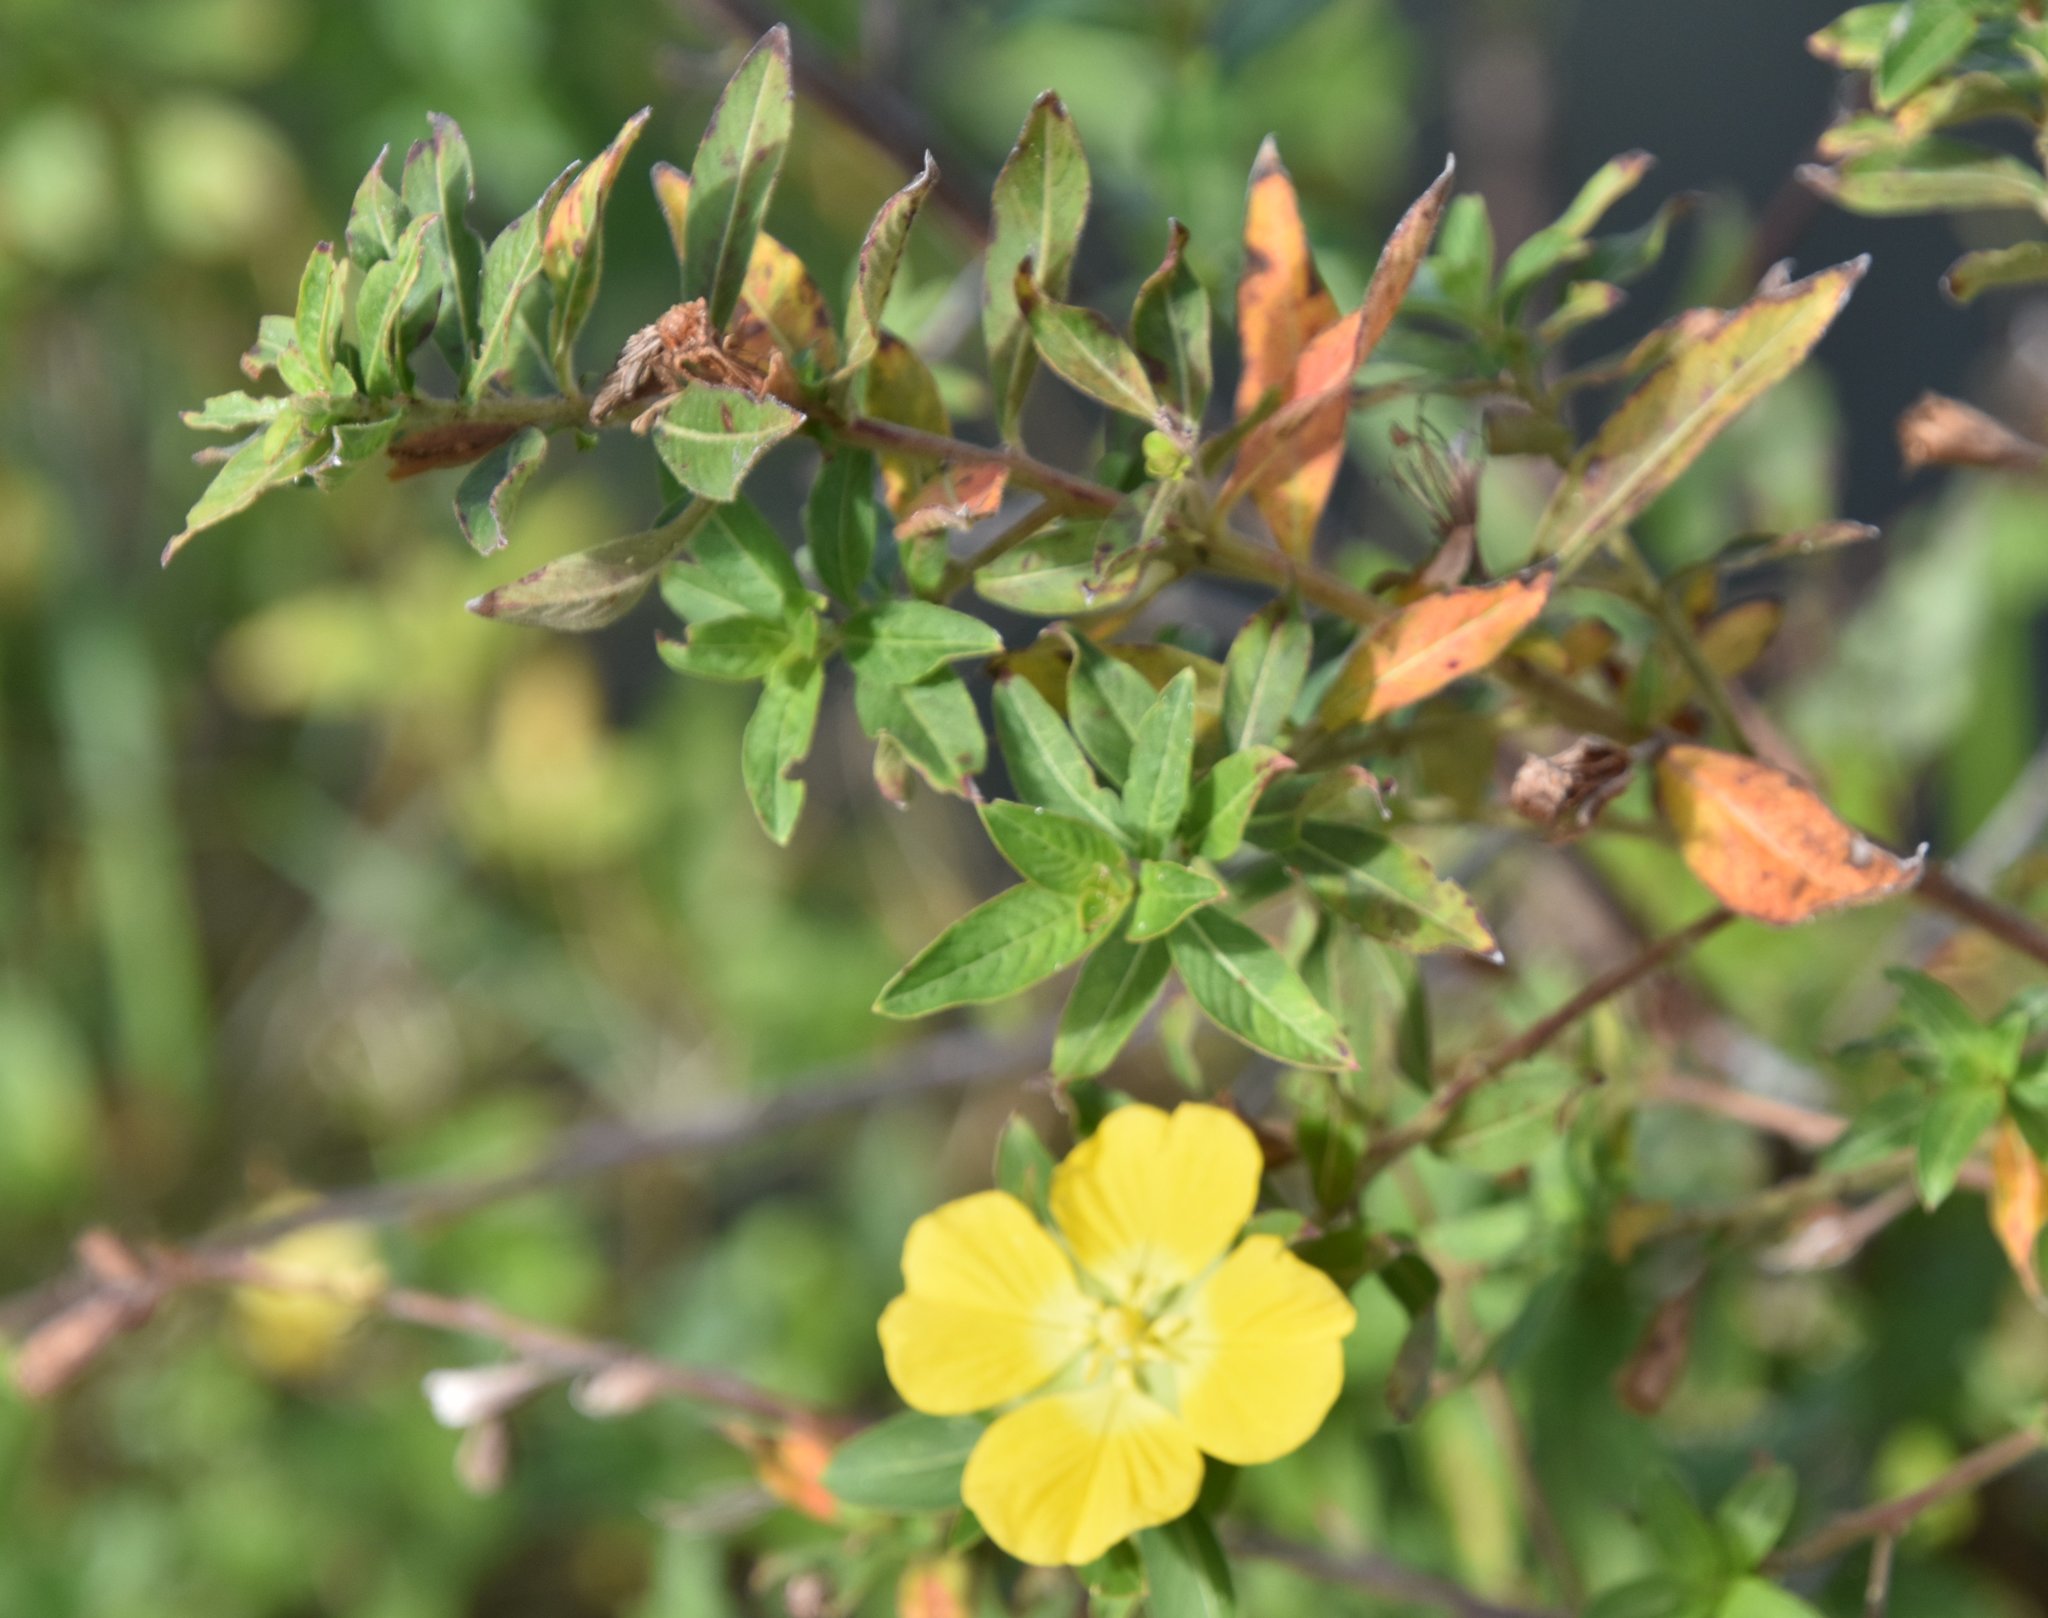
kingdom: Plantae
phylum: Tracheophyta
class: Magnoliopsida
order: Myrtales
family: Onagraceae
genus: Ludwigia
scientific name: Ludwigia peruviana
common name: Peruvian primrose-willow
